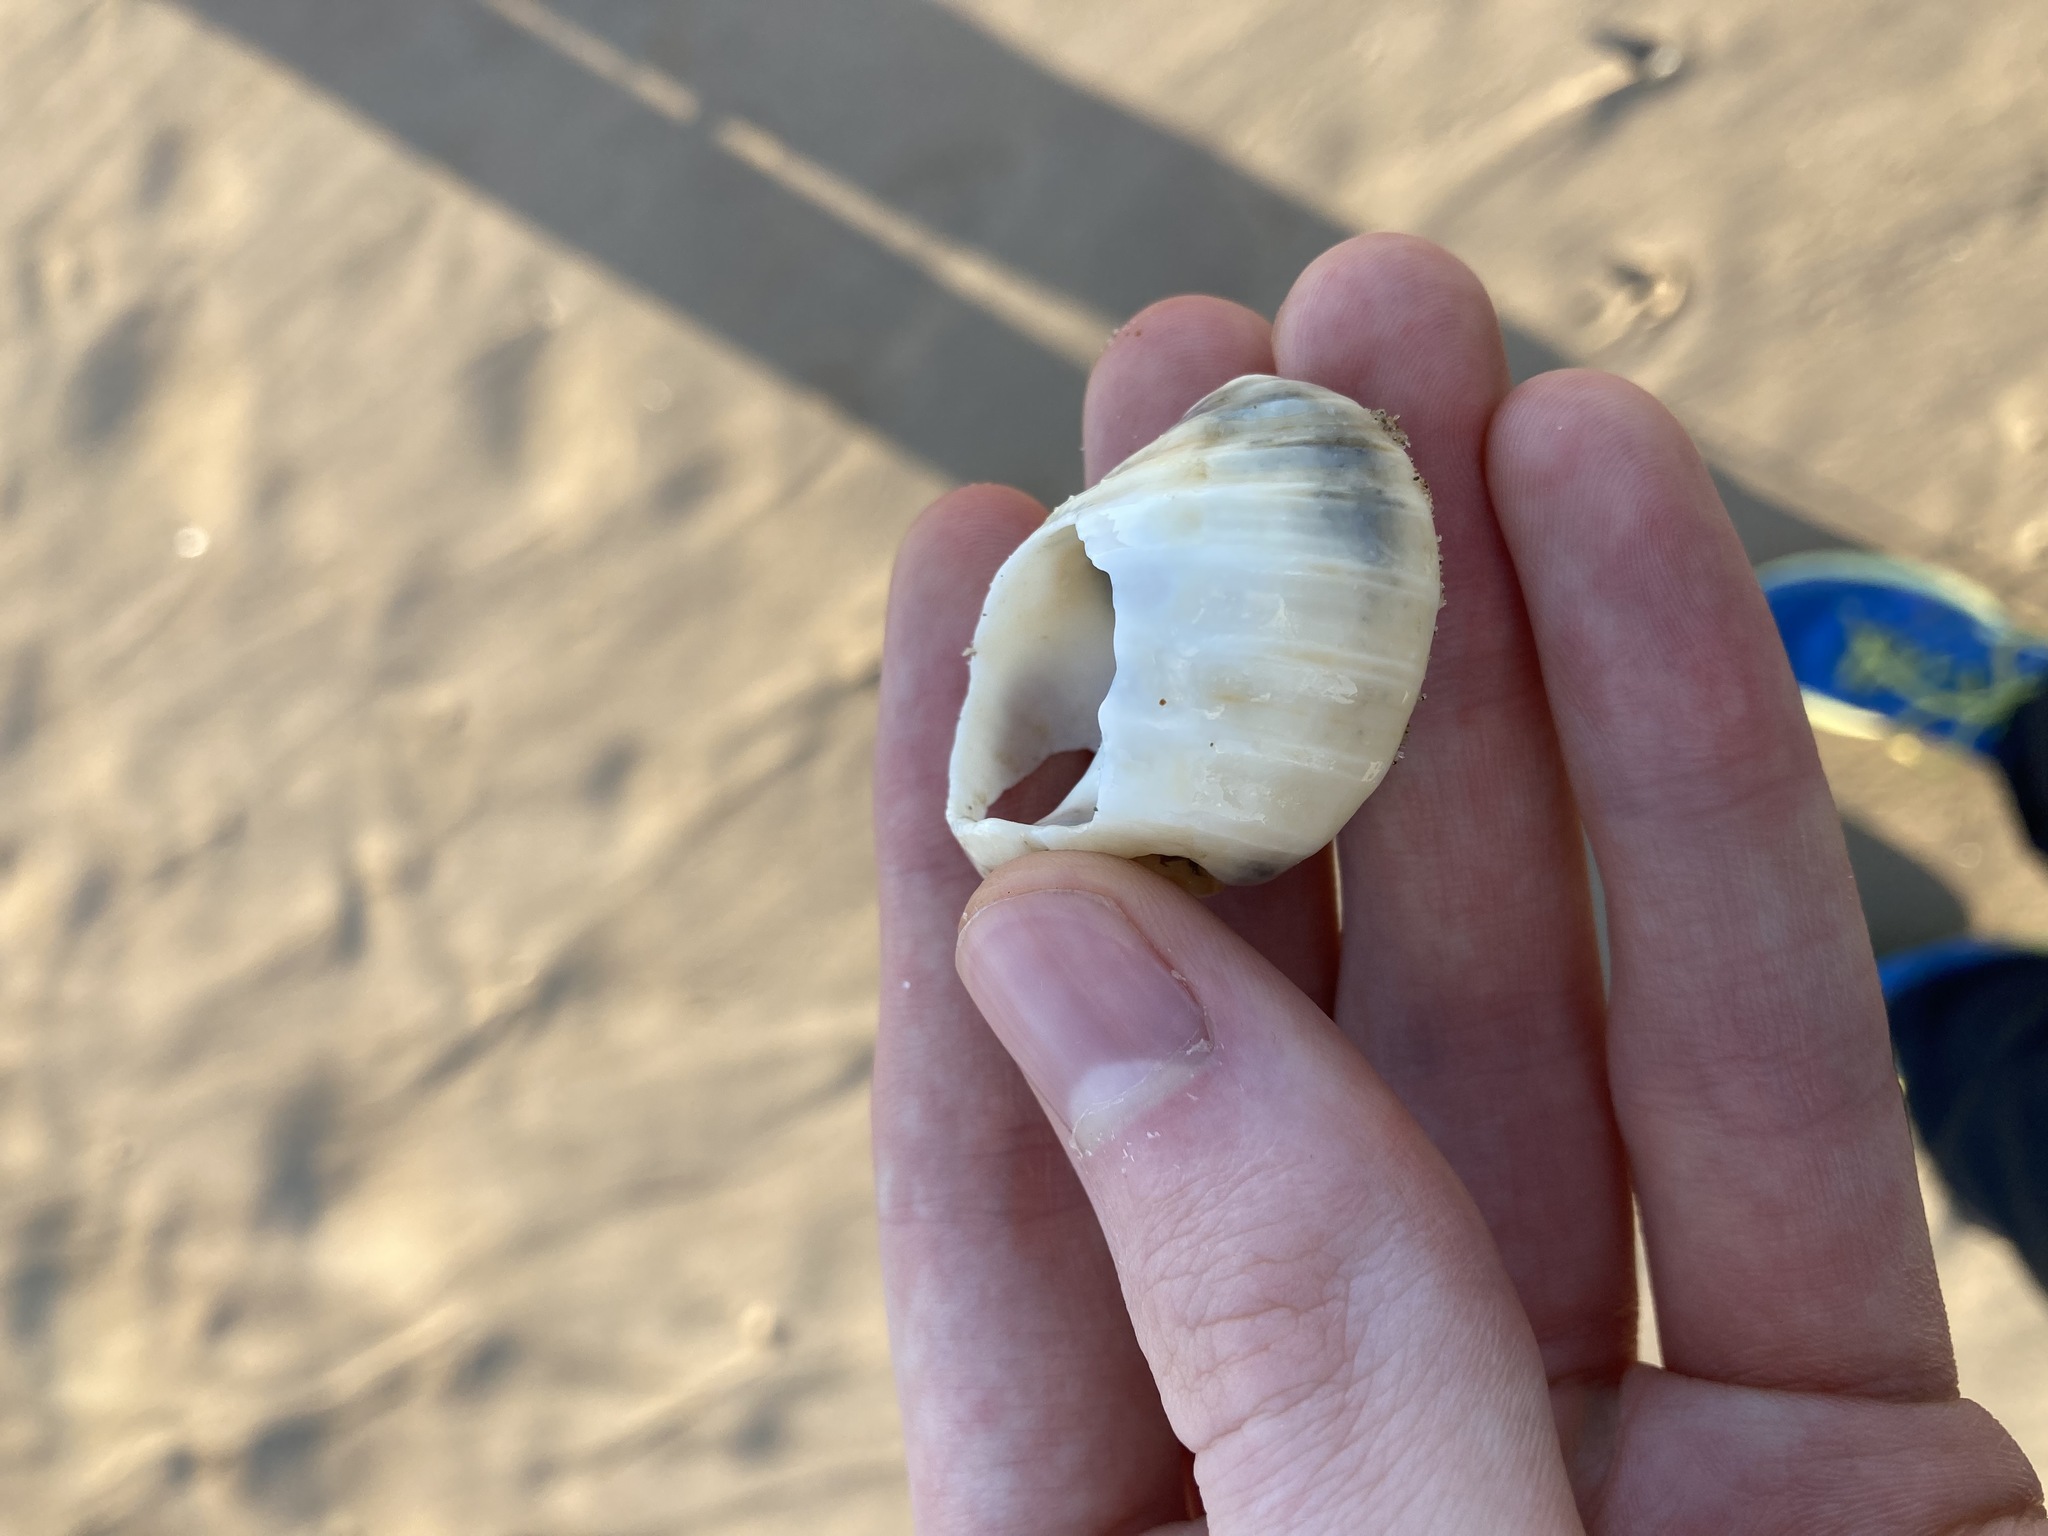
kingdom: Animalia
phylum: Mollusca
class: Gastropoda
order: Neogastropoda
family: Muricidae
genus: Dicathais
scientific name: Dicathais orbita
